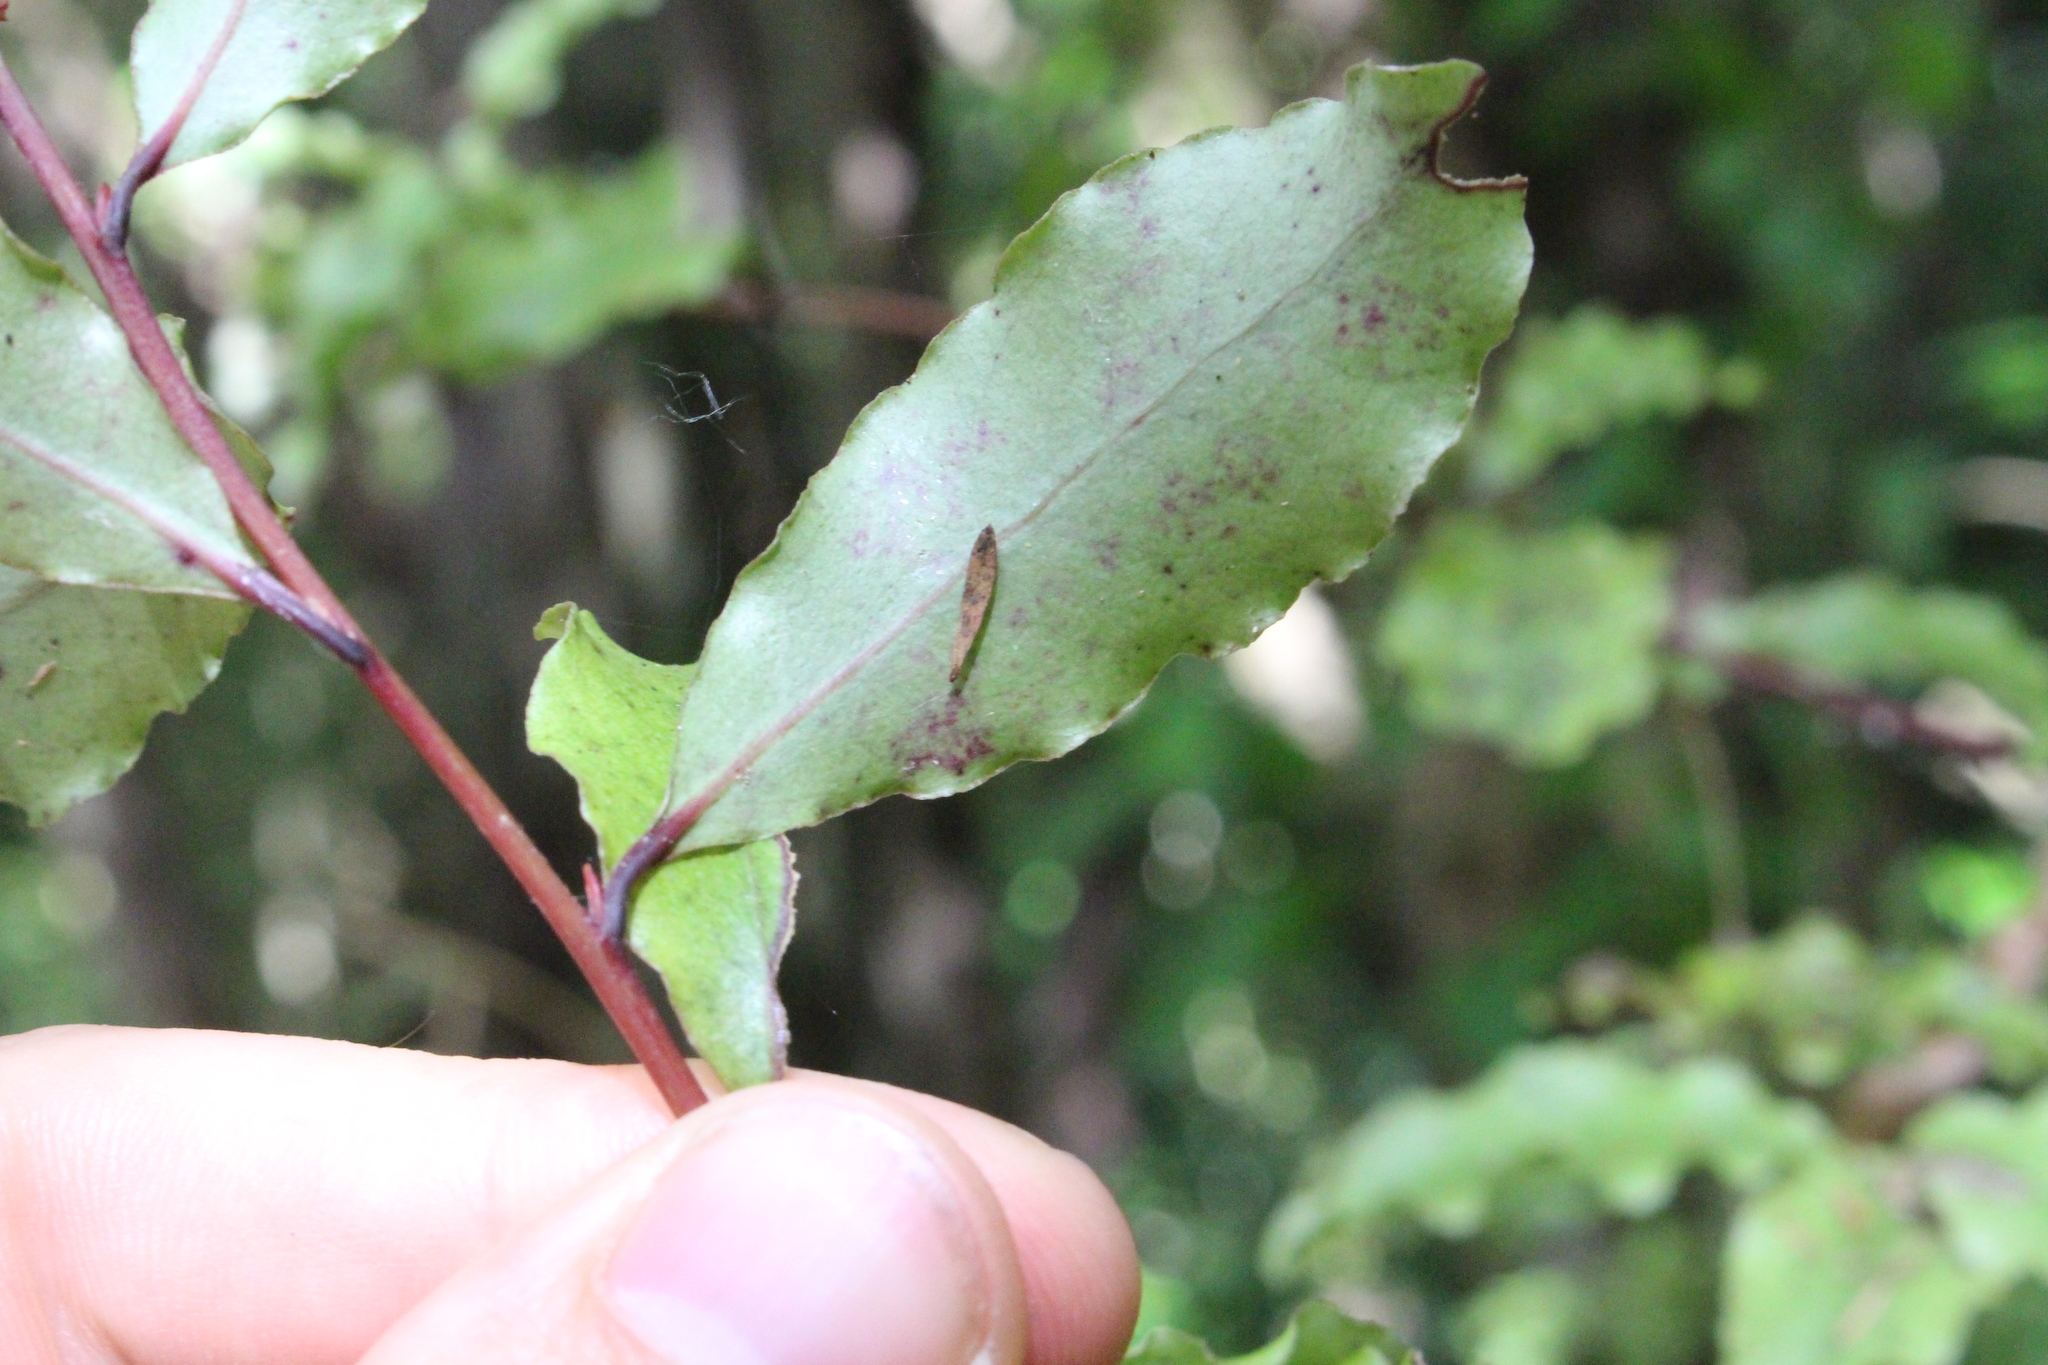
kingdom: Plantae
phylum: Tracheophyta
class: Magnoliopsida
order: Ericales
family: Primulaceae
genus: Myrsine
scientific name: Myrsine australis
